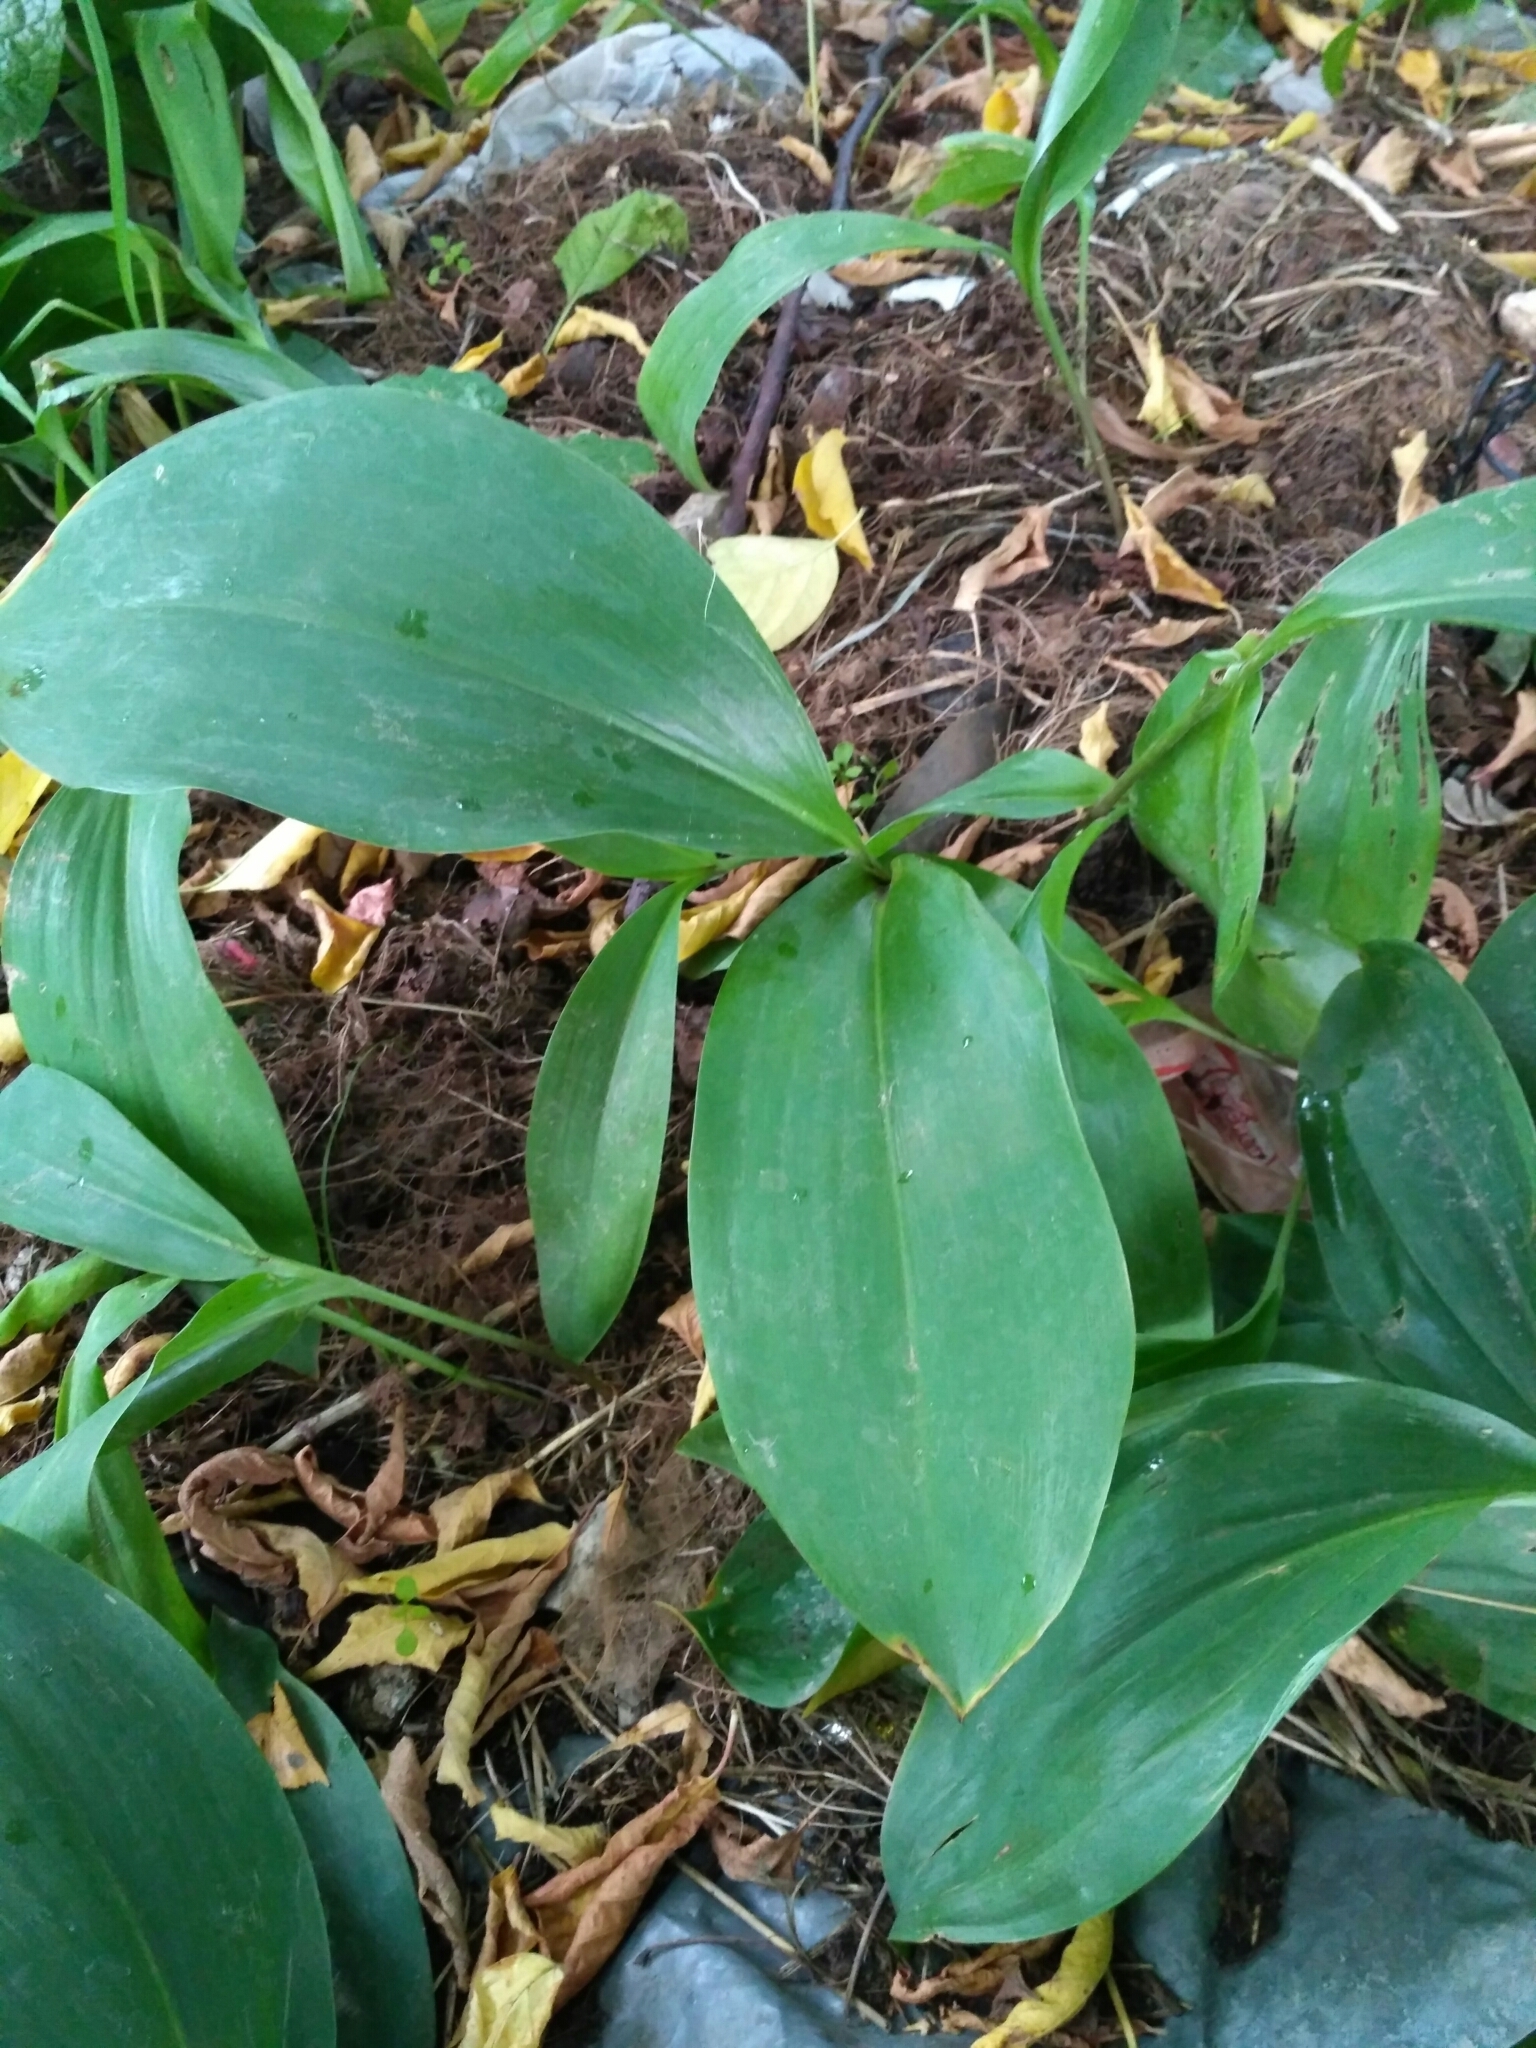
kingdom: Plantae
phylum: Tracheophyta
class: Liliopsida
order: Asparagales
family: Asparagaceae
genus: Convallaria
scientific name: Convallaria majalis
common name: Lily-of-the-valley
